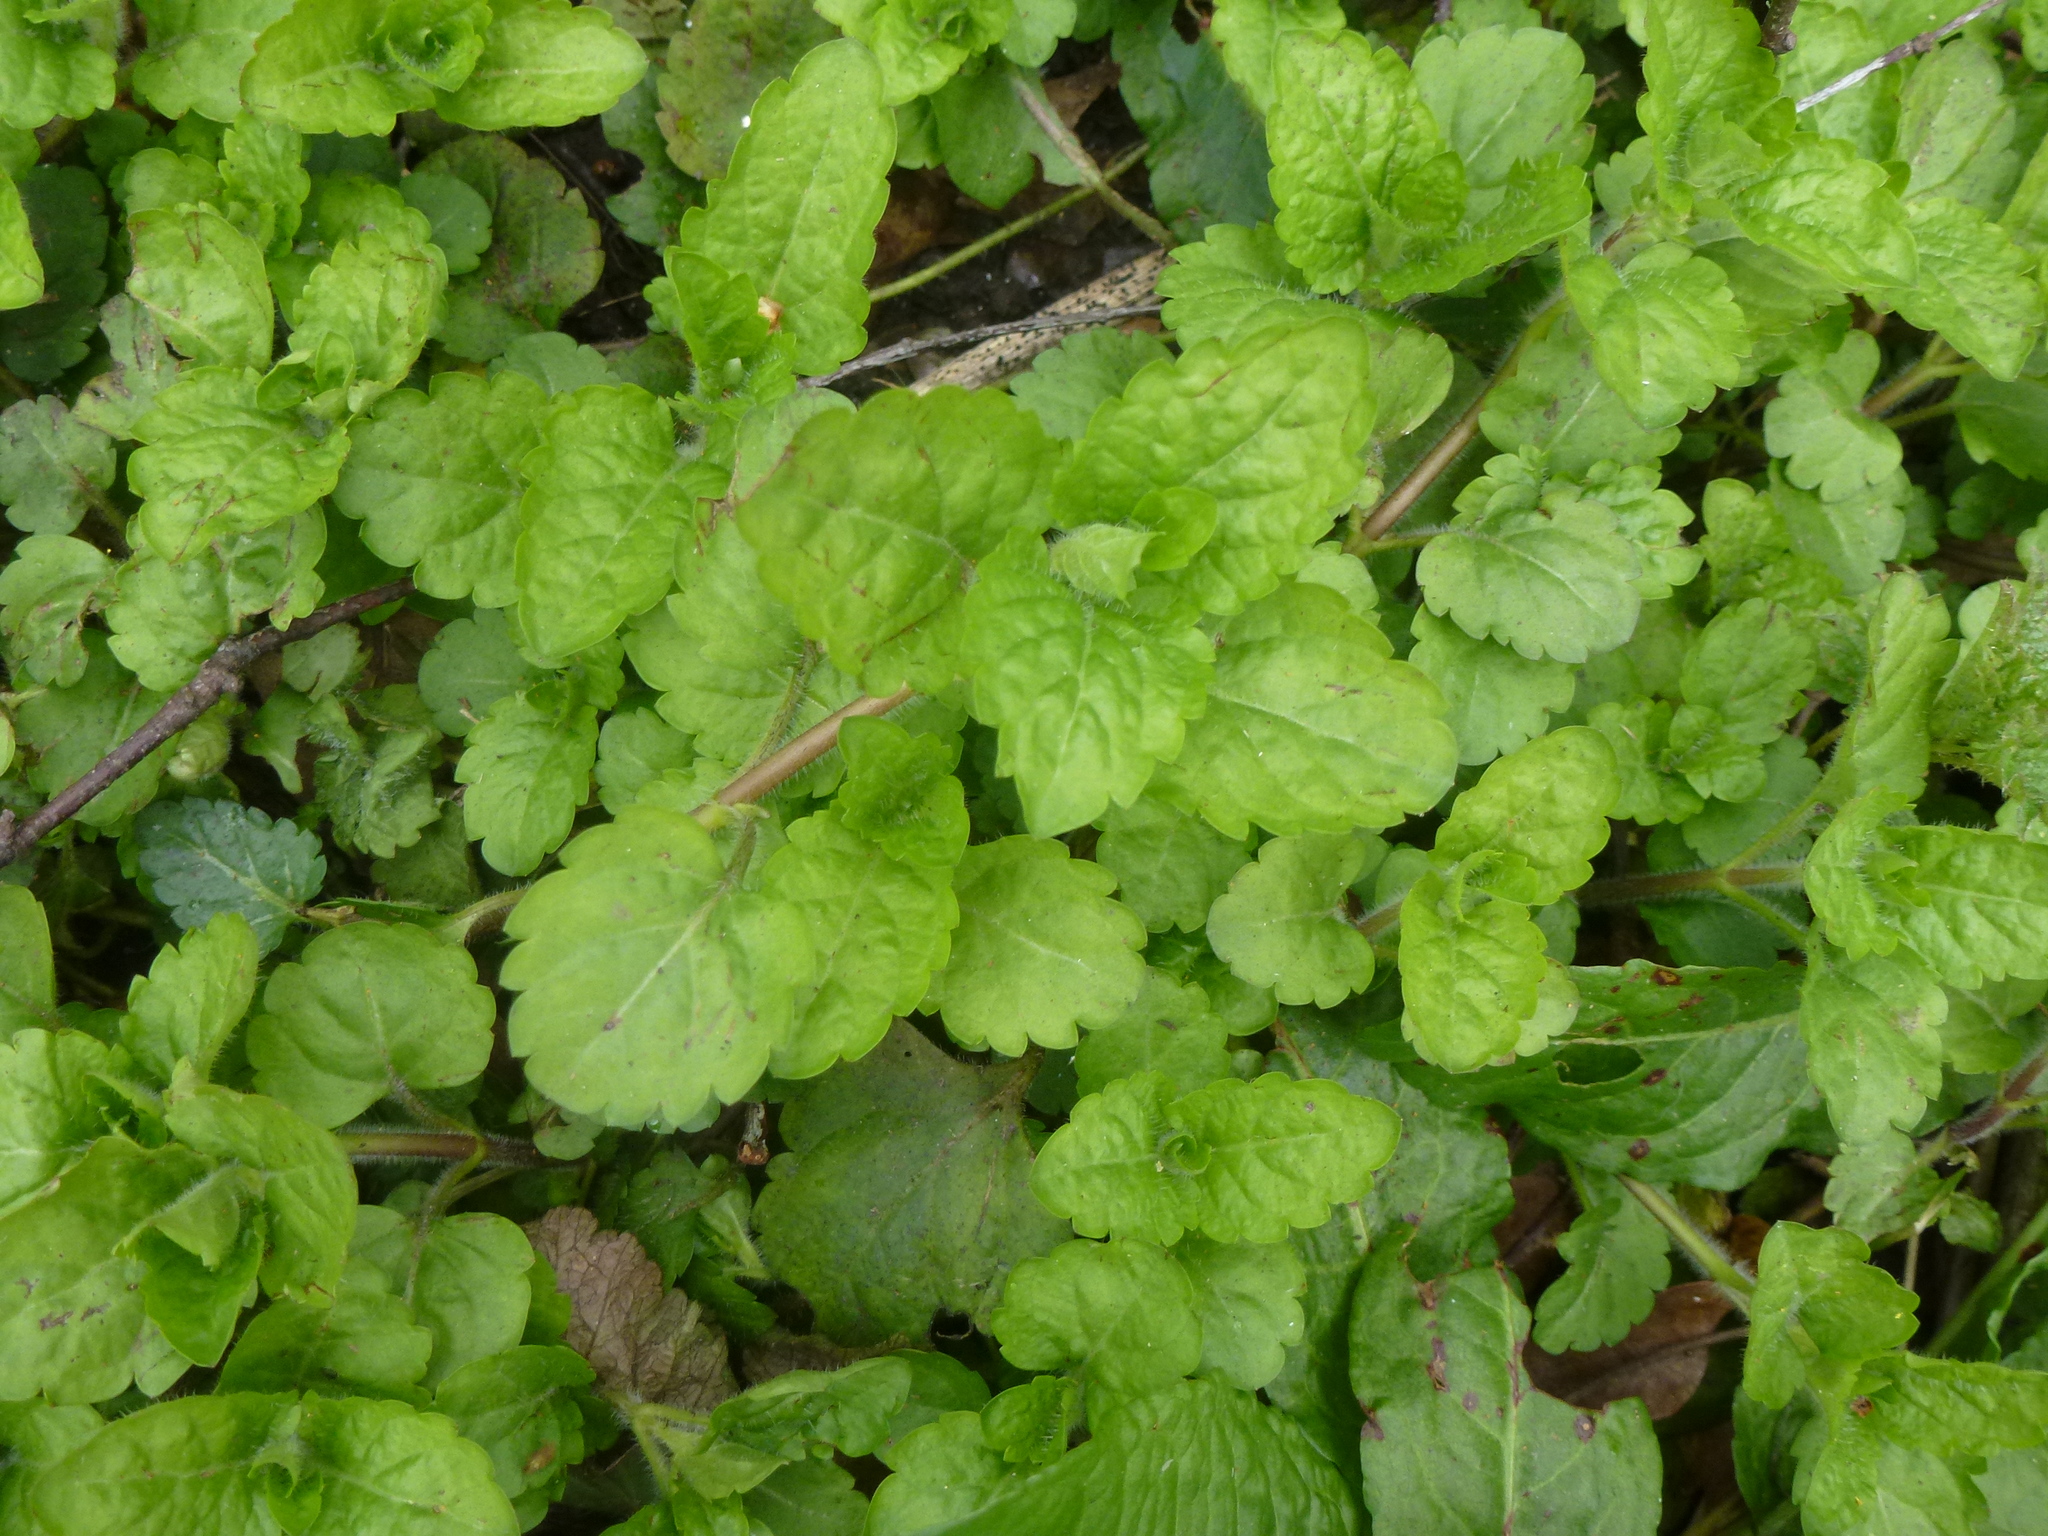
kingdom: Plantae
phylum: Tracheophyta
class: Magnoliopsida
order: Lamiales
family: Plantaginaceae
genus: Veronica
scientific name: Veronica montana
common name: Wood speedwell
